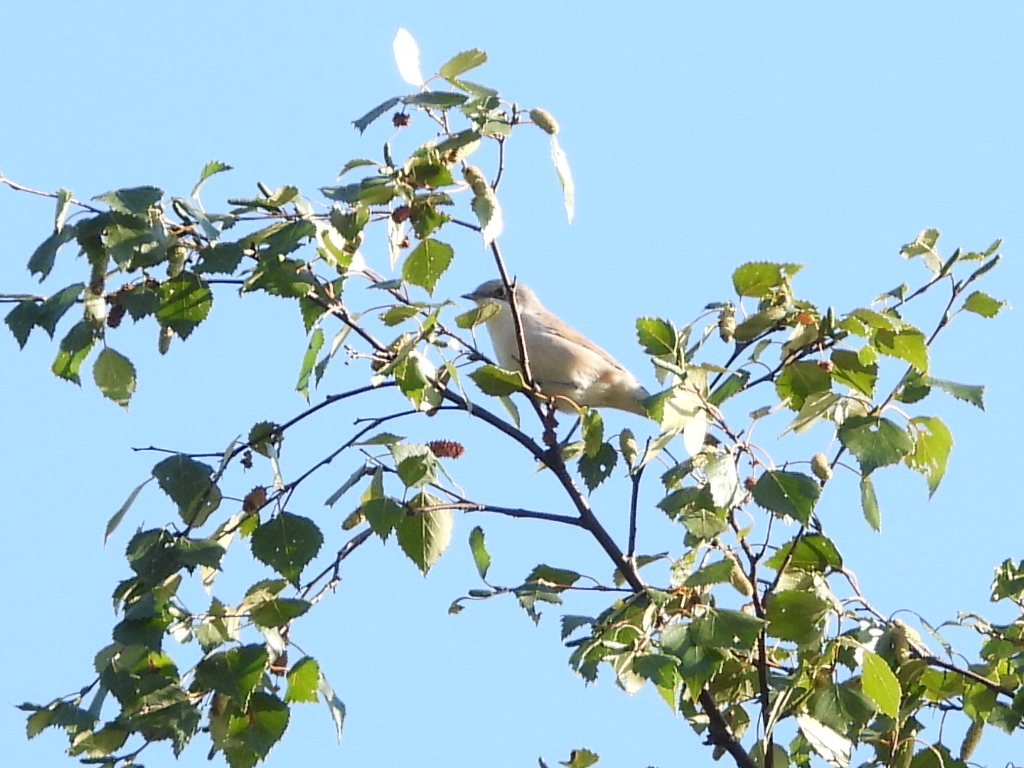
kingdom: Animalia
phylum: Chordata
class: Aves
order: Passeriformes
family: Sylviidae
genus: Sylvia
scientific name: Sylvia curruca
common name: Lesser whitethroat
